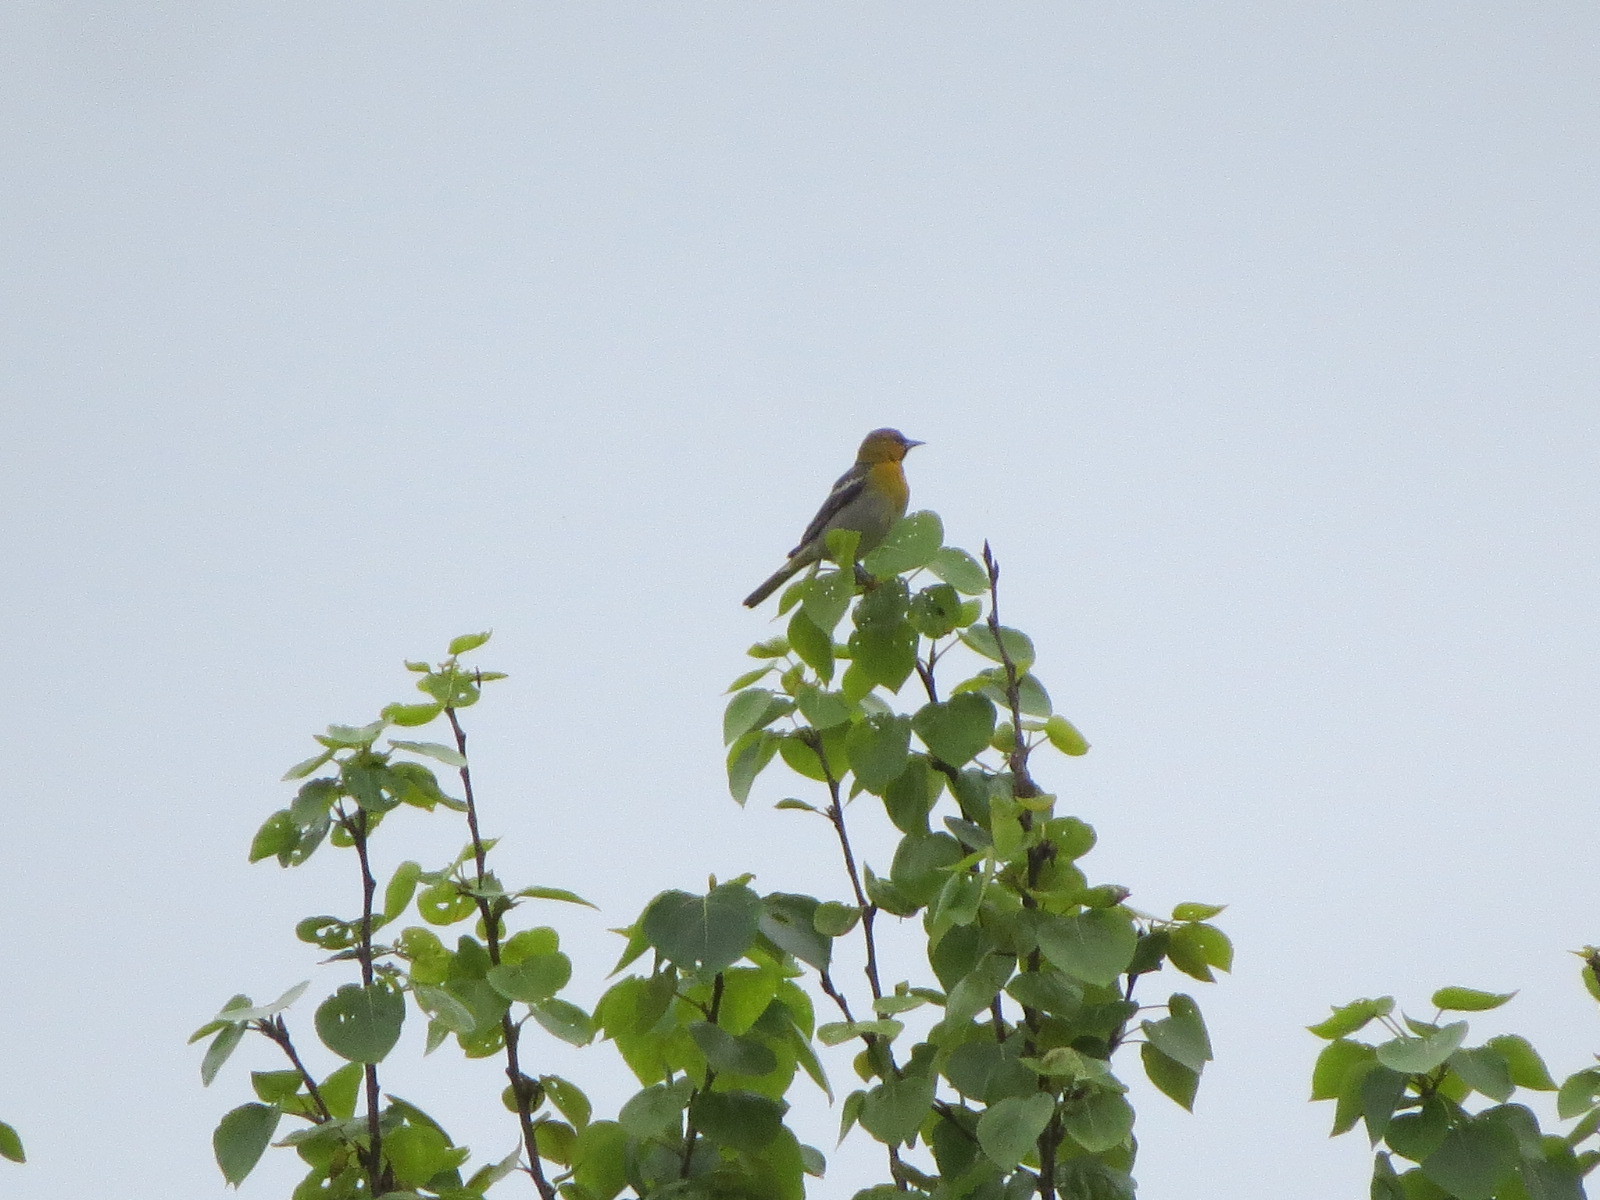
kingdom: Animalia
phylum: Chordata
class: Aves
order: Passeriformes
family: Icteridae
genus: Icterus
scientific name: Icterus bullockii
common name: Bullock's oriole
